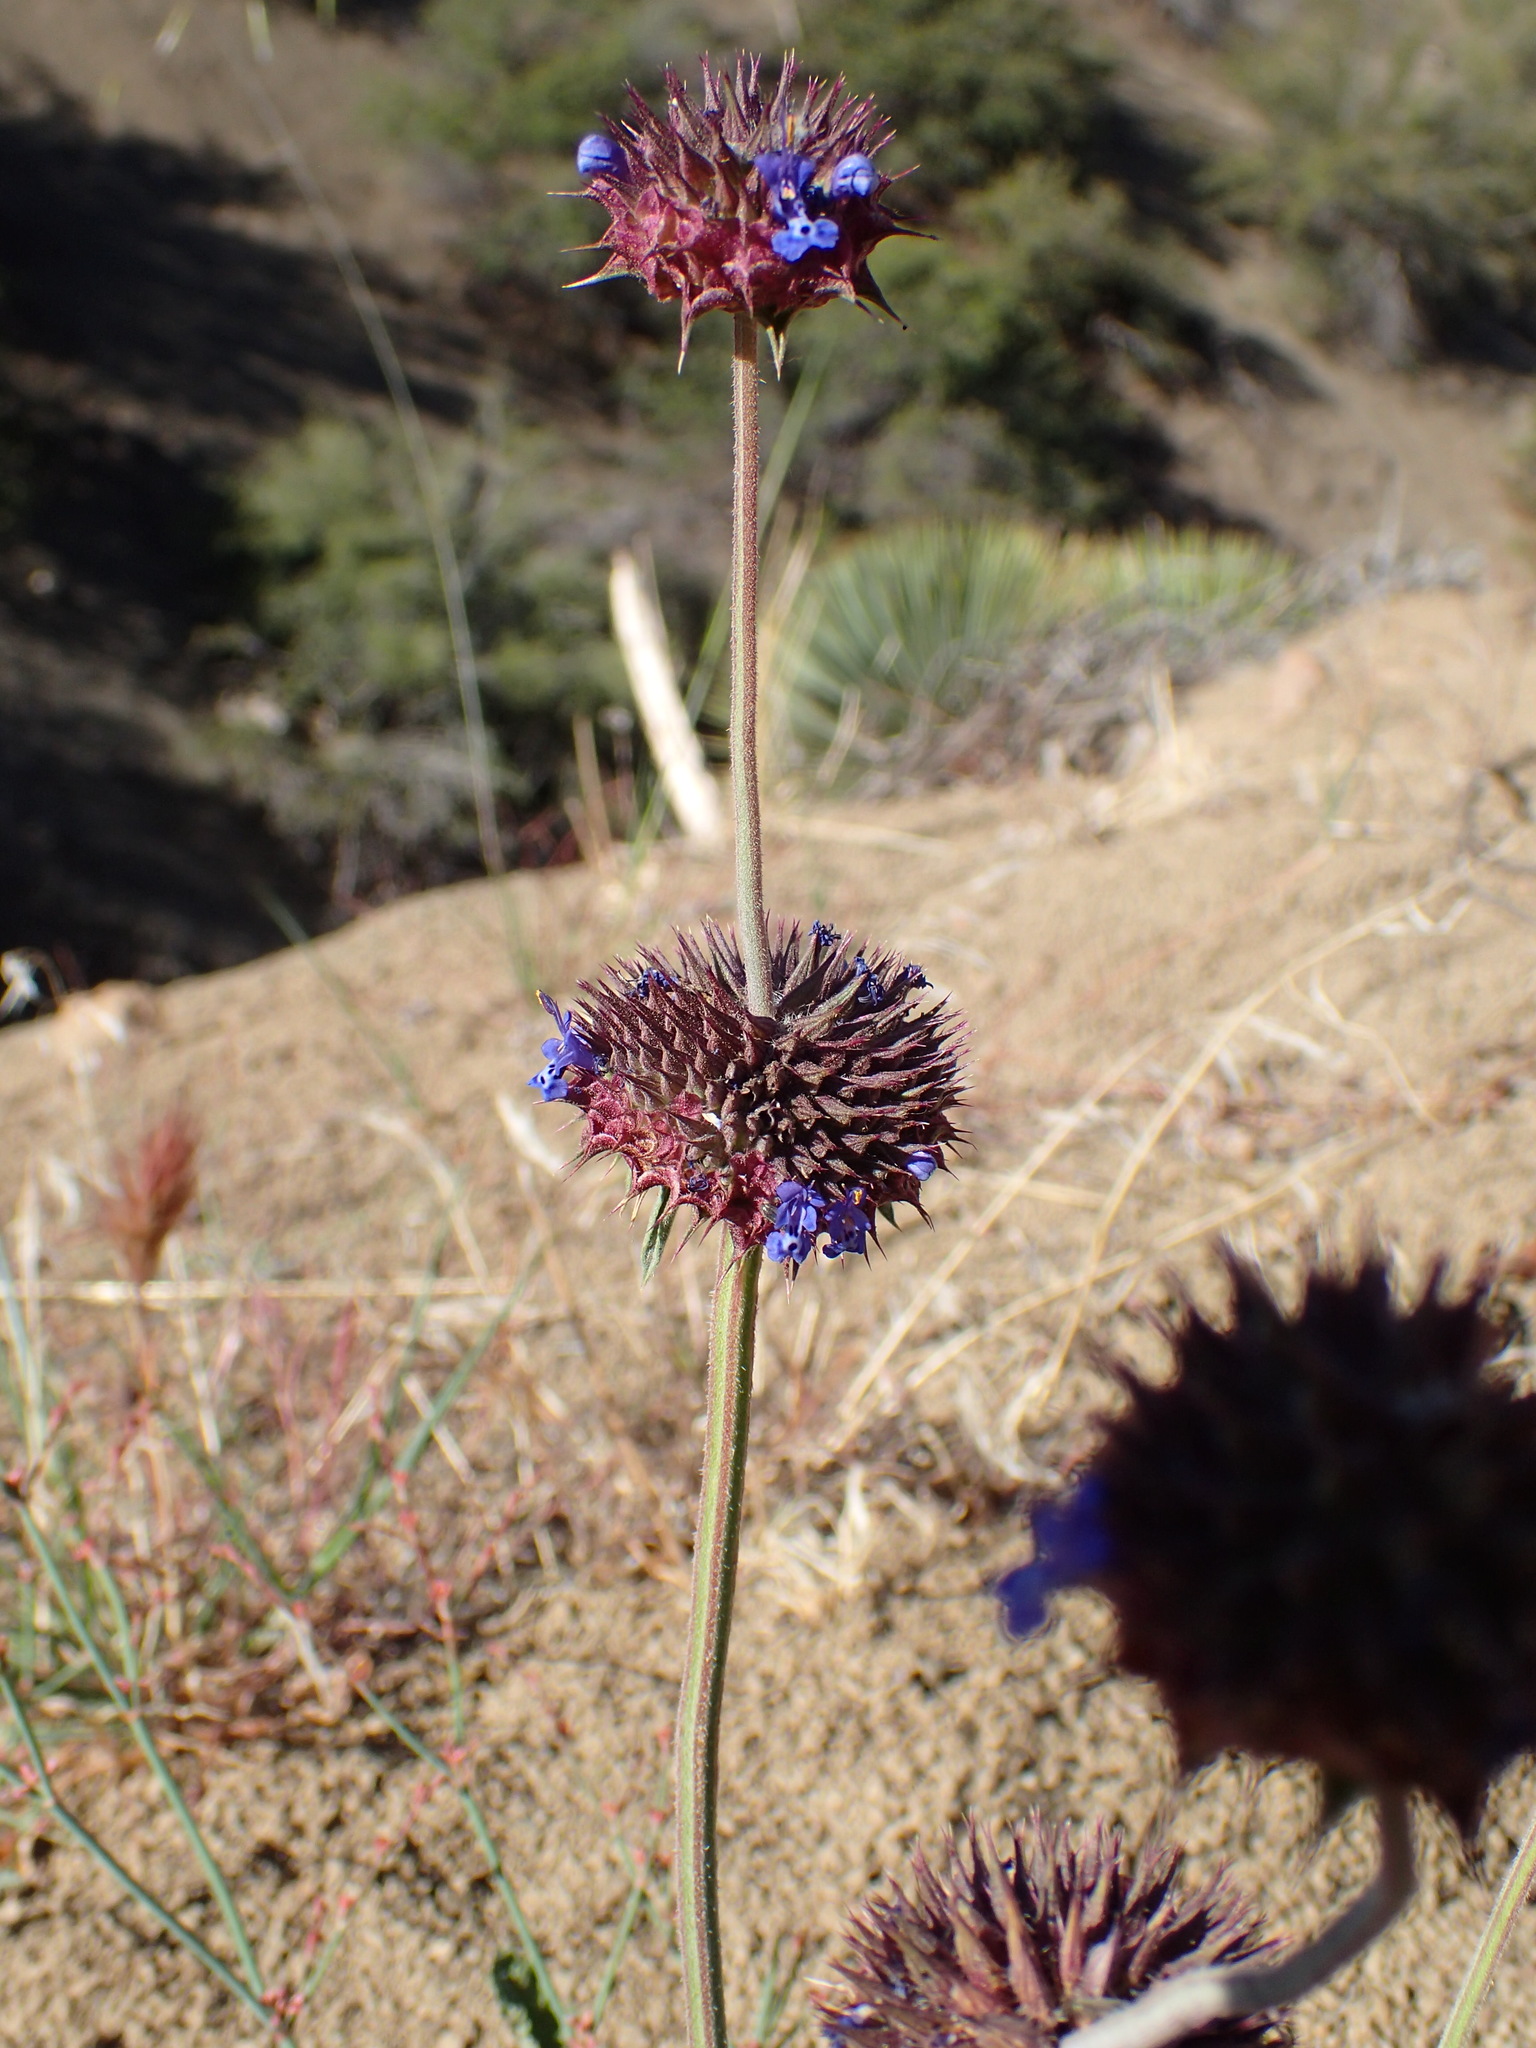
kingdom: Plantae
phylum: Tracheophyta
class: Magnoliopsida
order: Lamiales
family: Lamiaceae
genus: Salvia
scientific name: Salvia columbariae
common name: Chia
